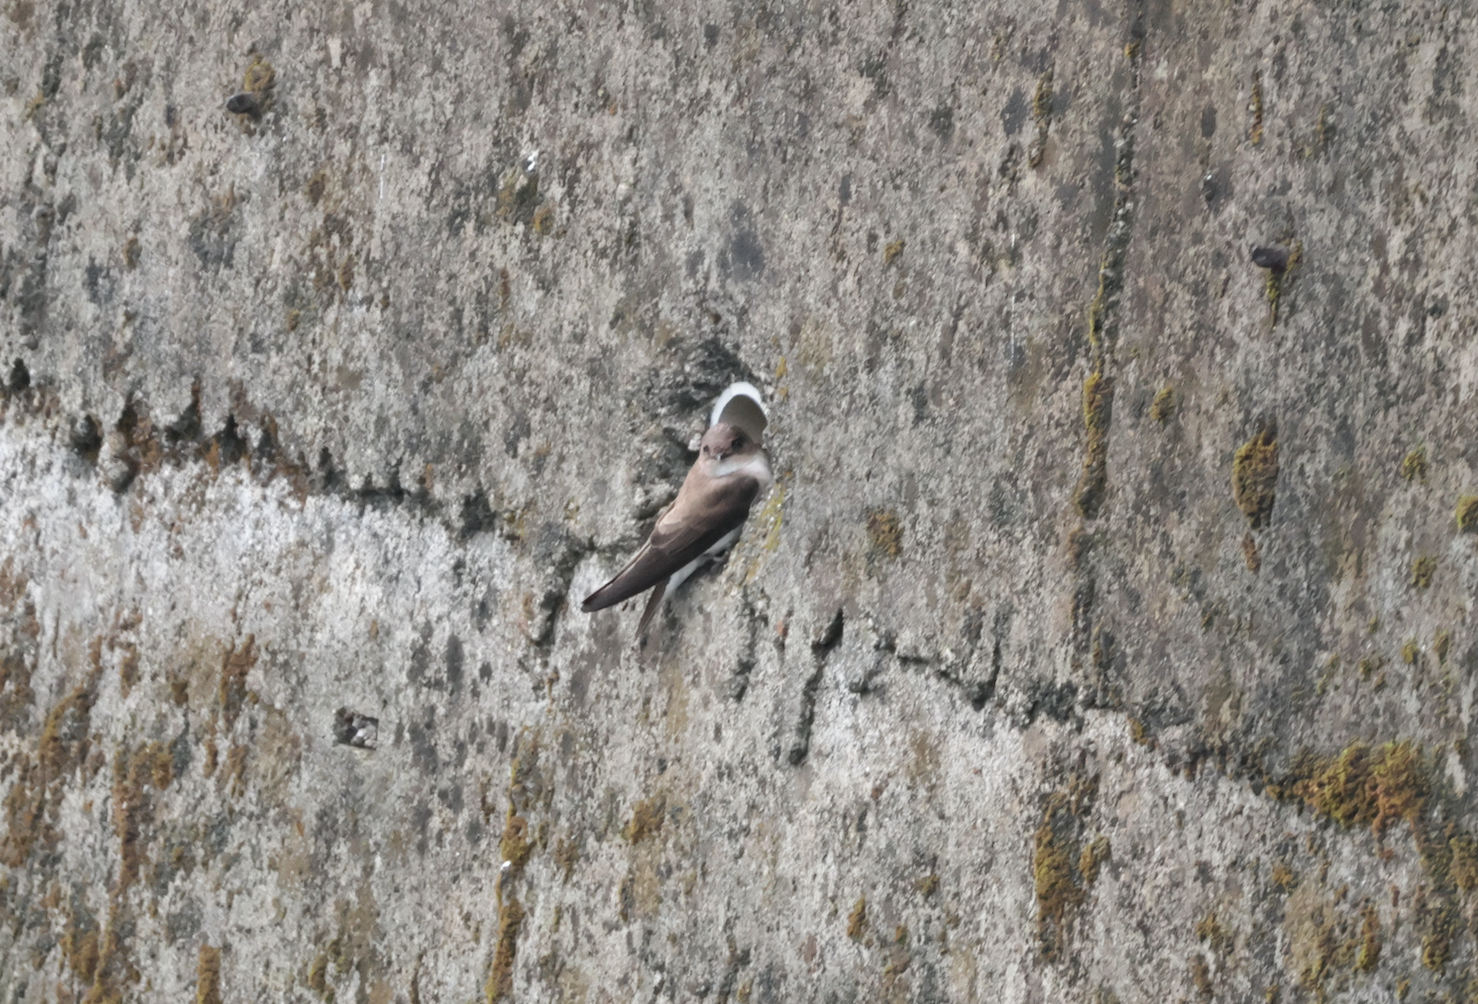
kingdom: Animalia
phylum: Chordata
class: Aves
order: Passeriformes
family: Hirundinidae
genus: Riparia
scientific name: Riparia chinensis
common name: Gray-throated martin
